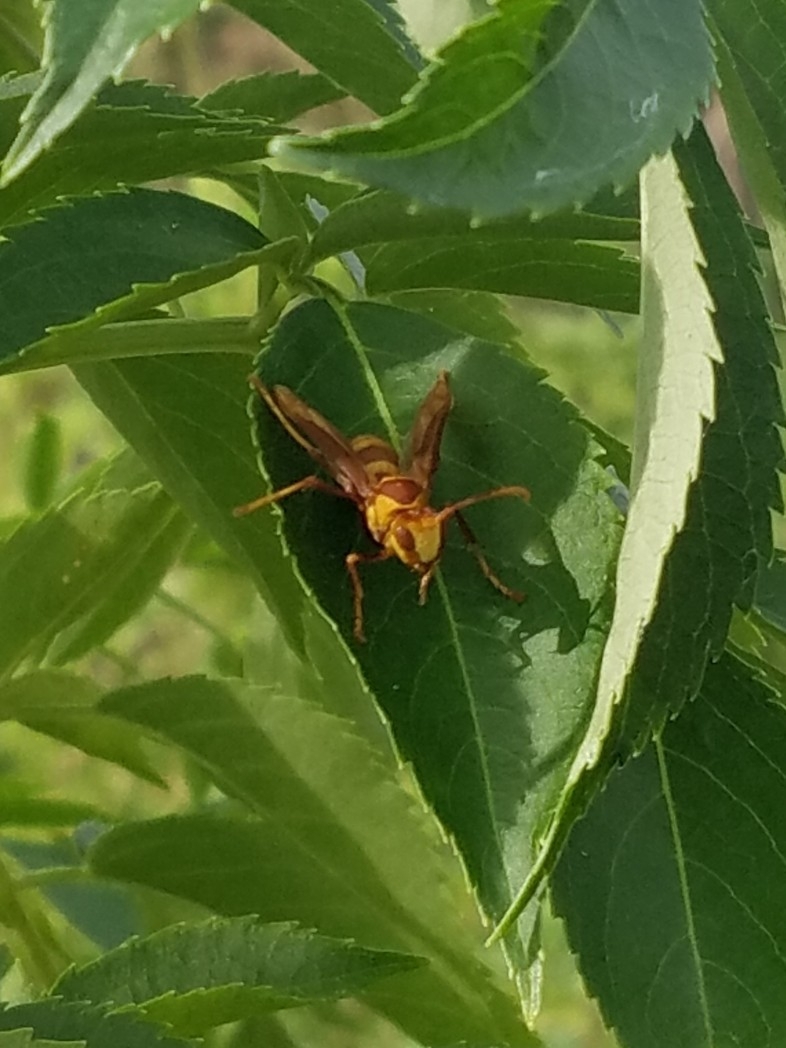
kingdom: Animalia
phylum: Arthropoda
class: Insecta
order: Hymenoptera
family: Eumenidae
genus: Polistes
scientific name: Polistes major
